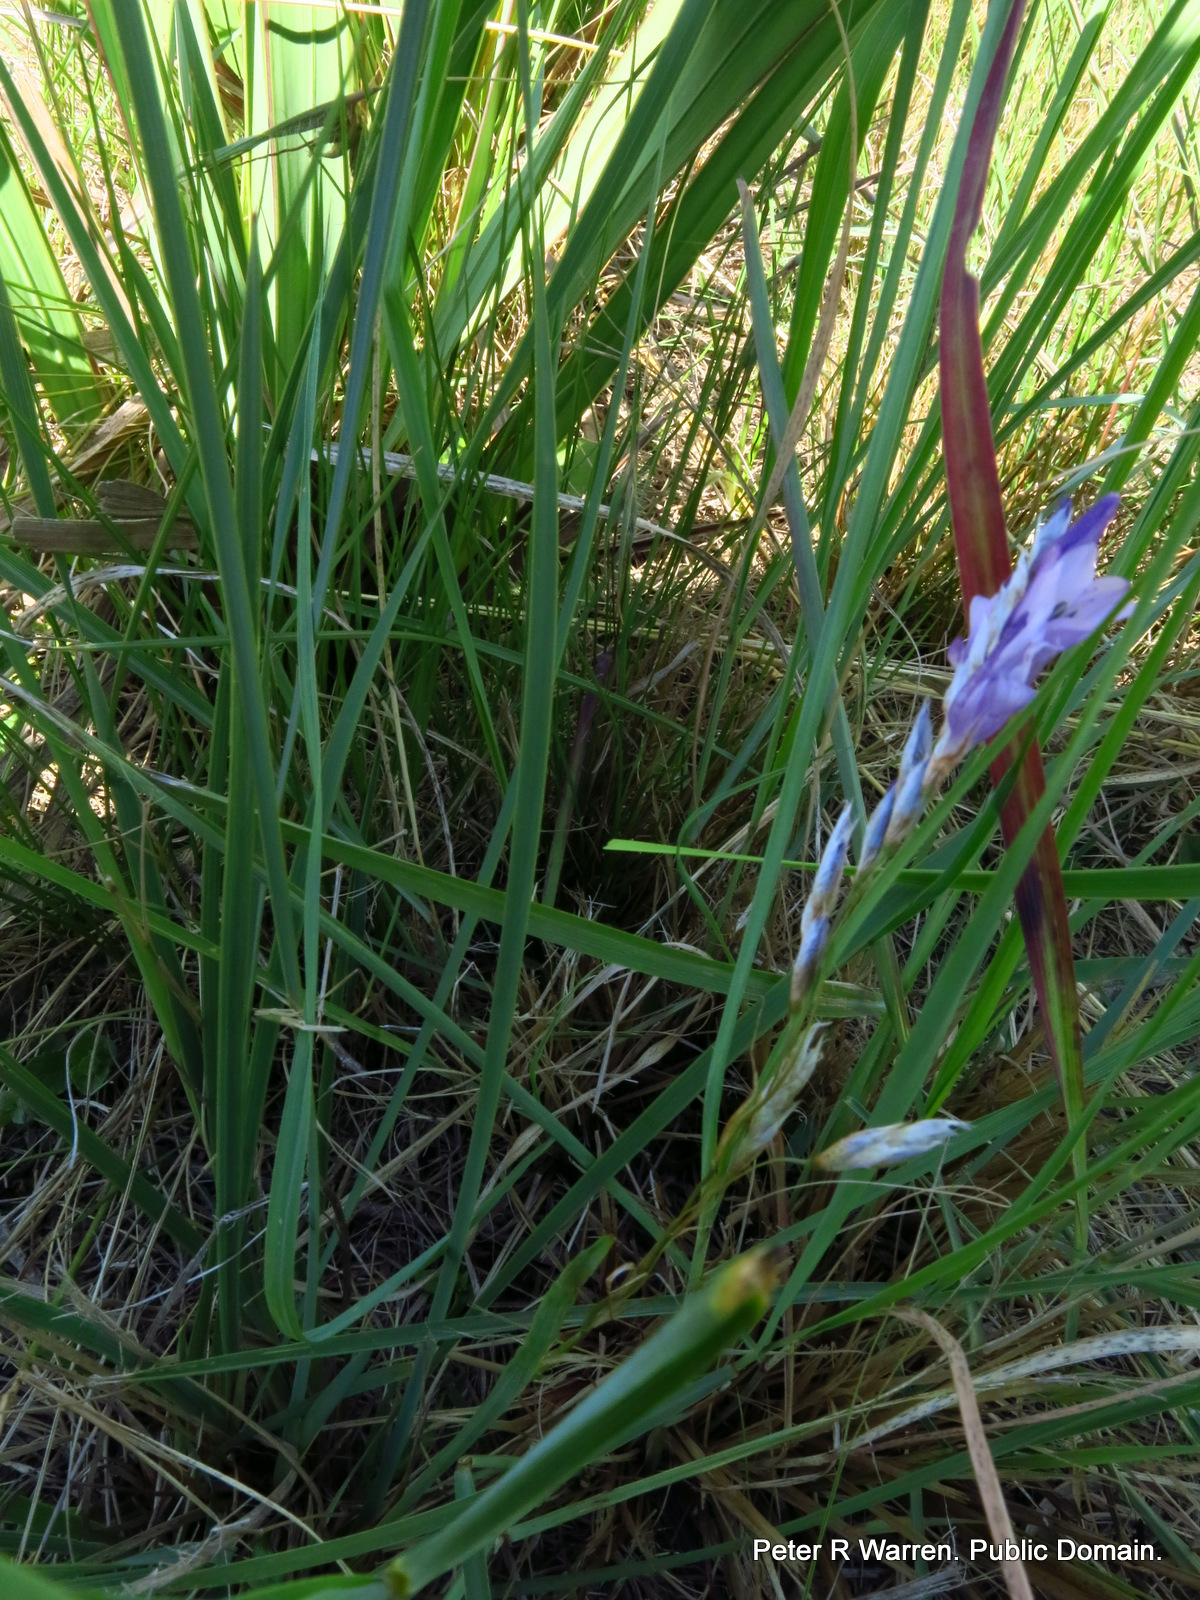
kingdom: Plantae
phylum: Tracheophyta
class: Liliopsida
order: Asparagales
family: Iridaceae
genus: Dierama
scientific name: Dierama floriferum
